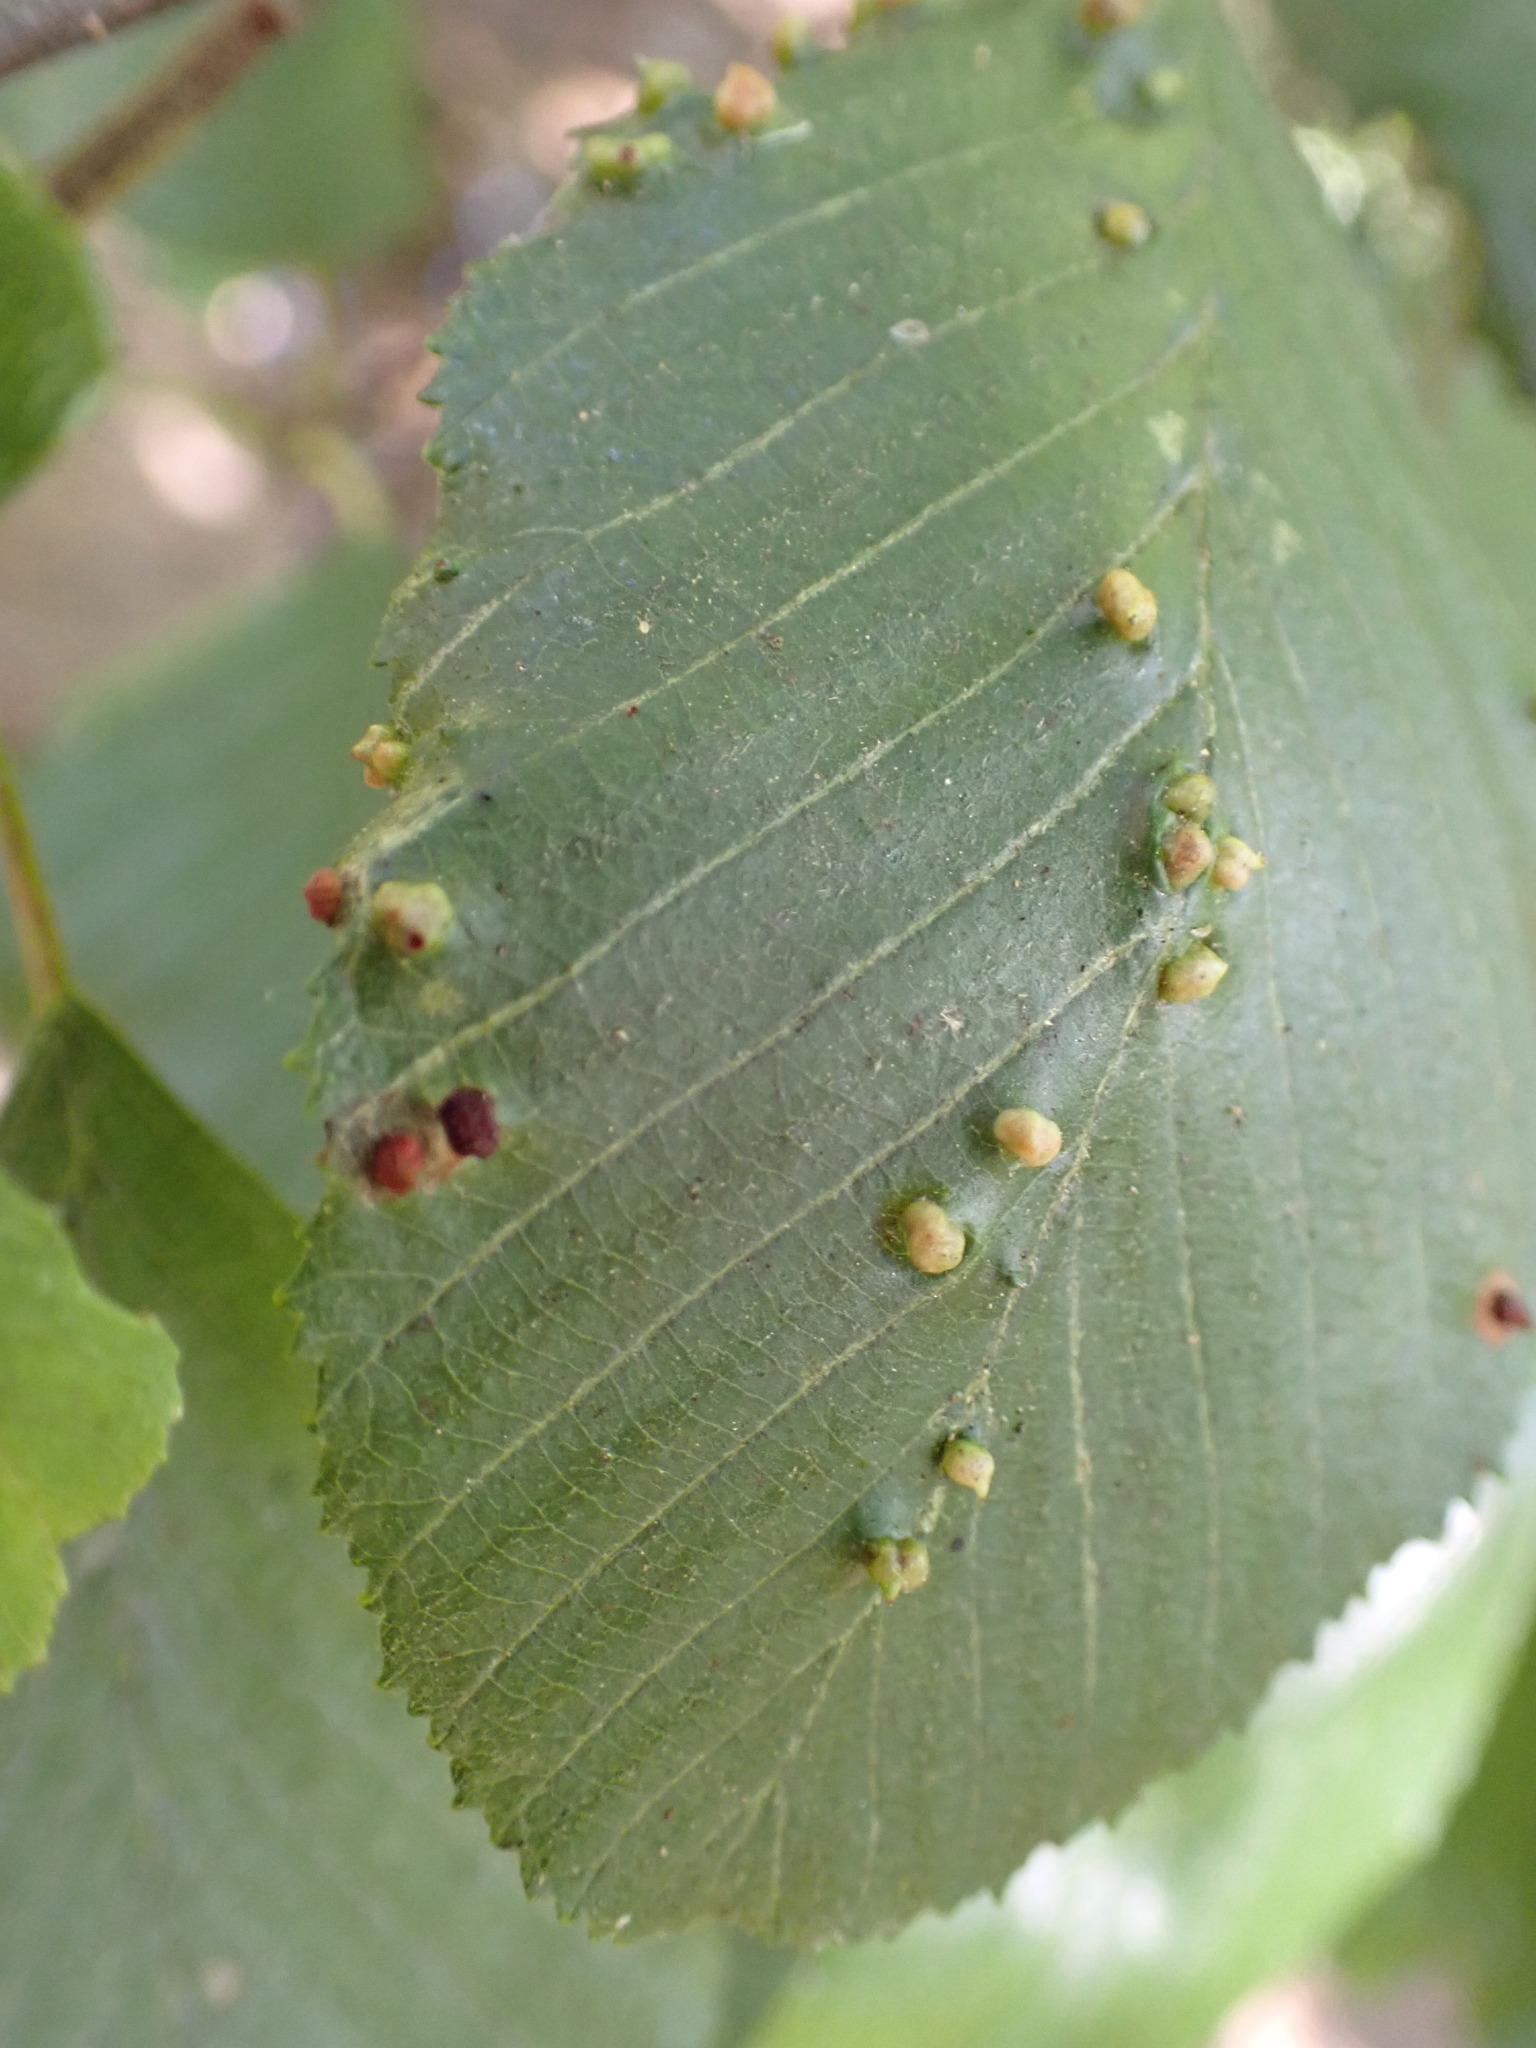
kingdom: Animalia
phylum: Arthropoda
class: Arachnida
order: Trombidiformes
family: Eriophyidae
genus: Eriophyes
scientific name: Eriophyes laevis
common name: Alder leaf gall mite
